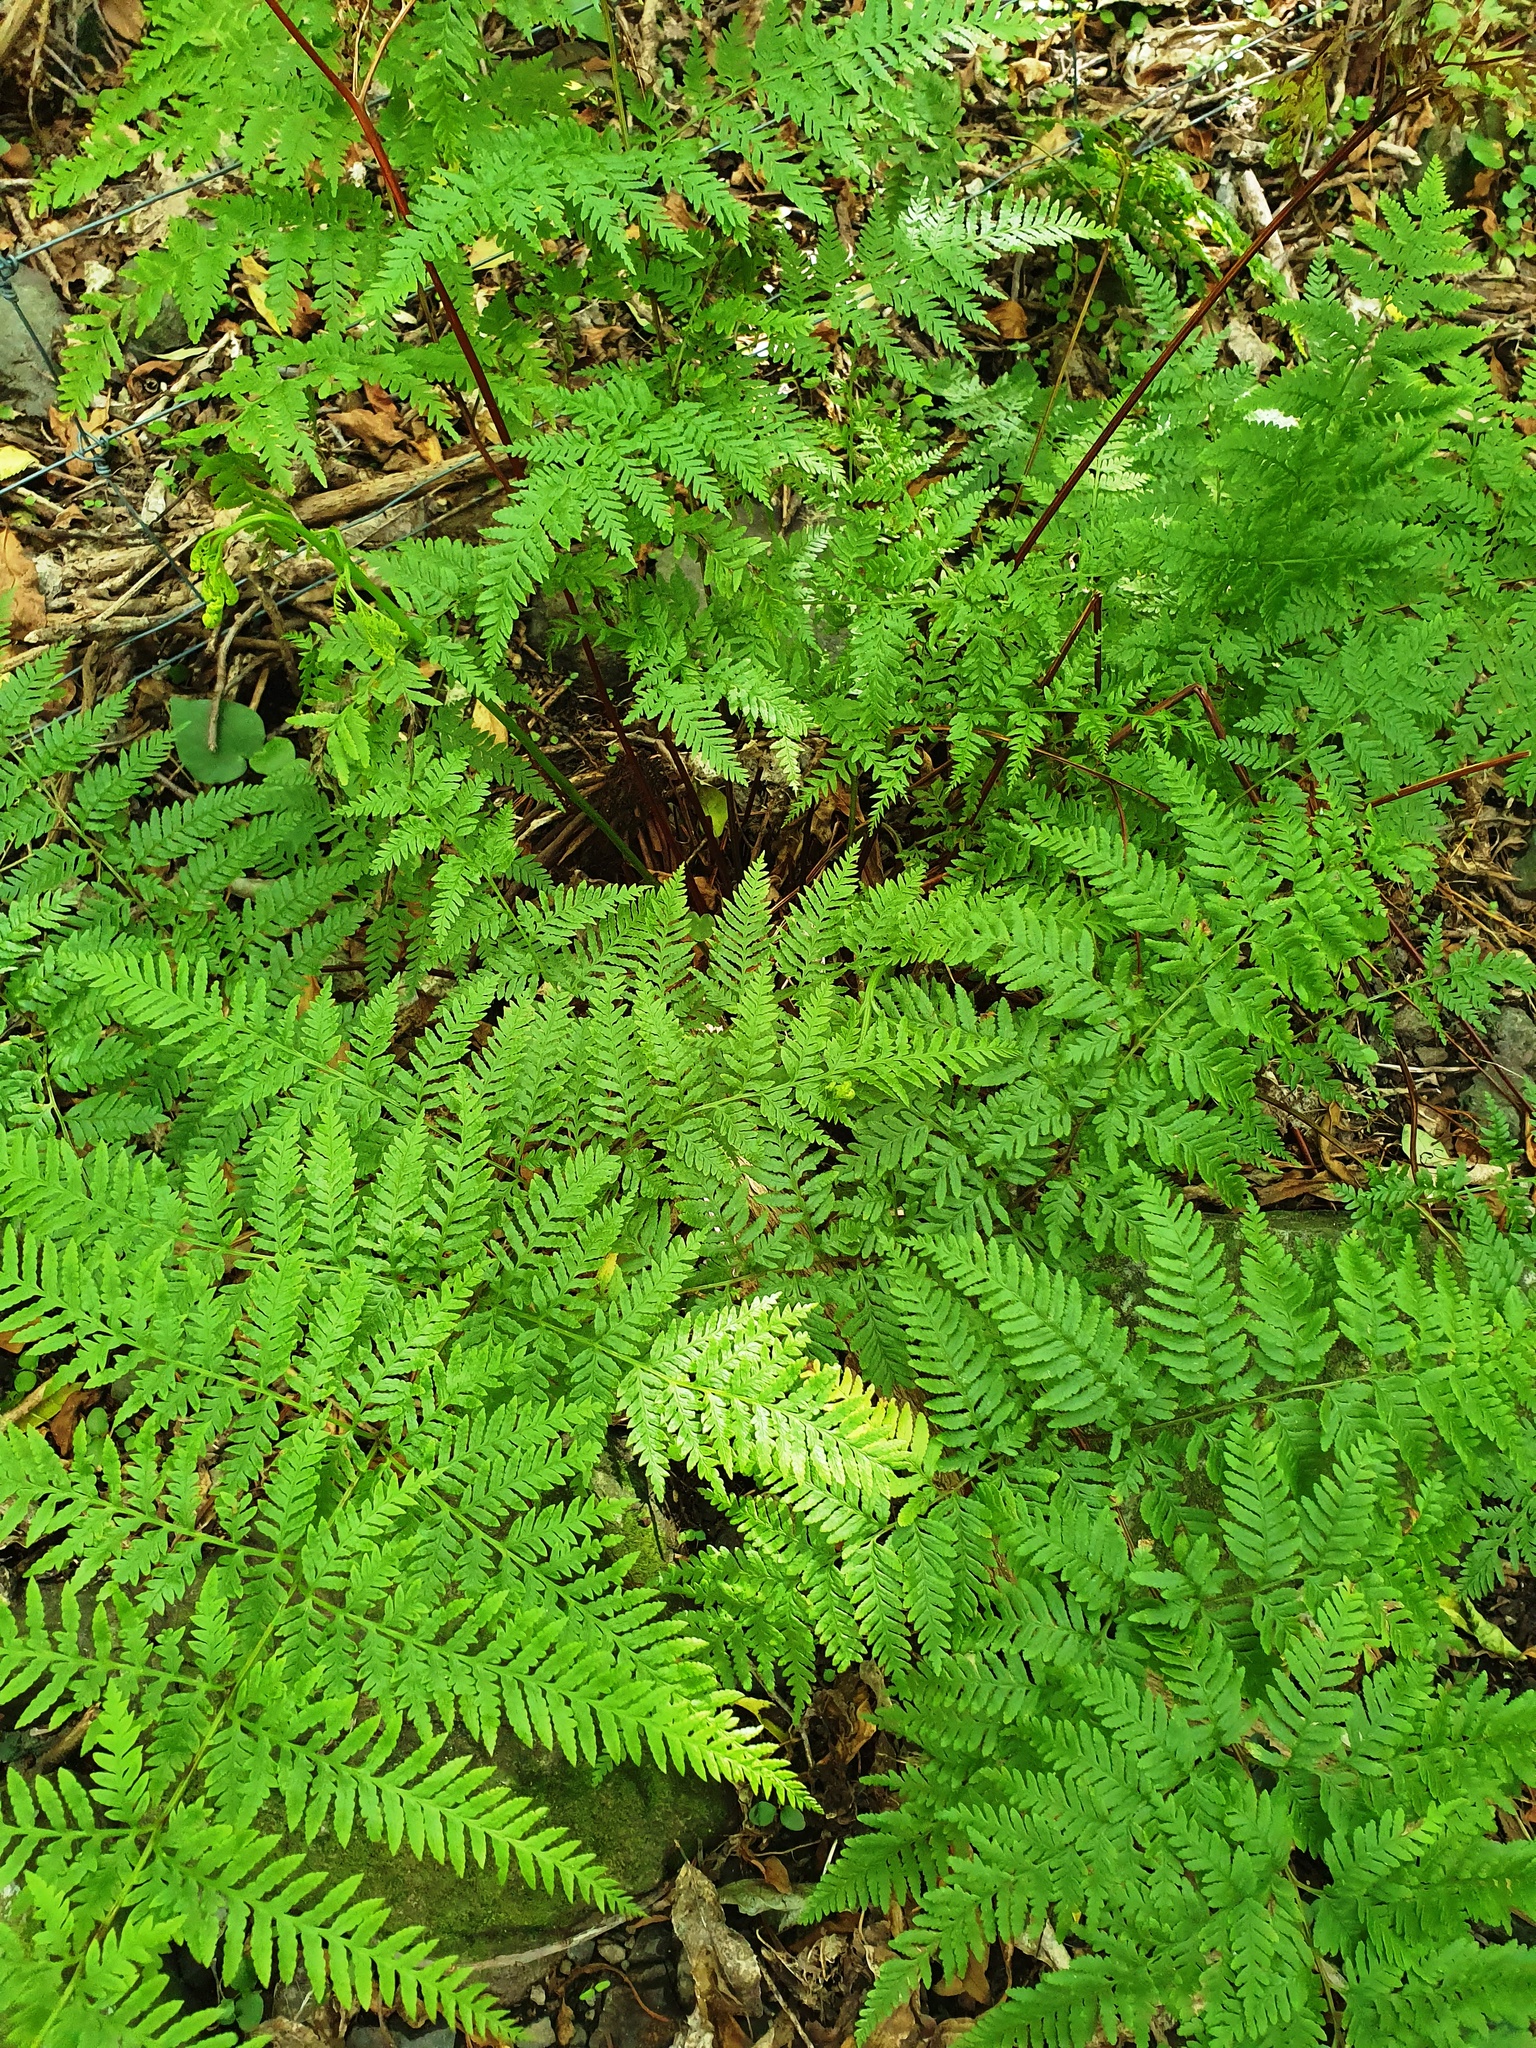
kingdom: Plantae
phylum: Tracheophyta
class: Polypodiopsida
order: Polypodiales
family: Pteridaceae
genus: Pteris
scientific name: Pteris tremula
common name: Australian brake
